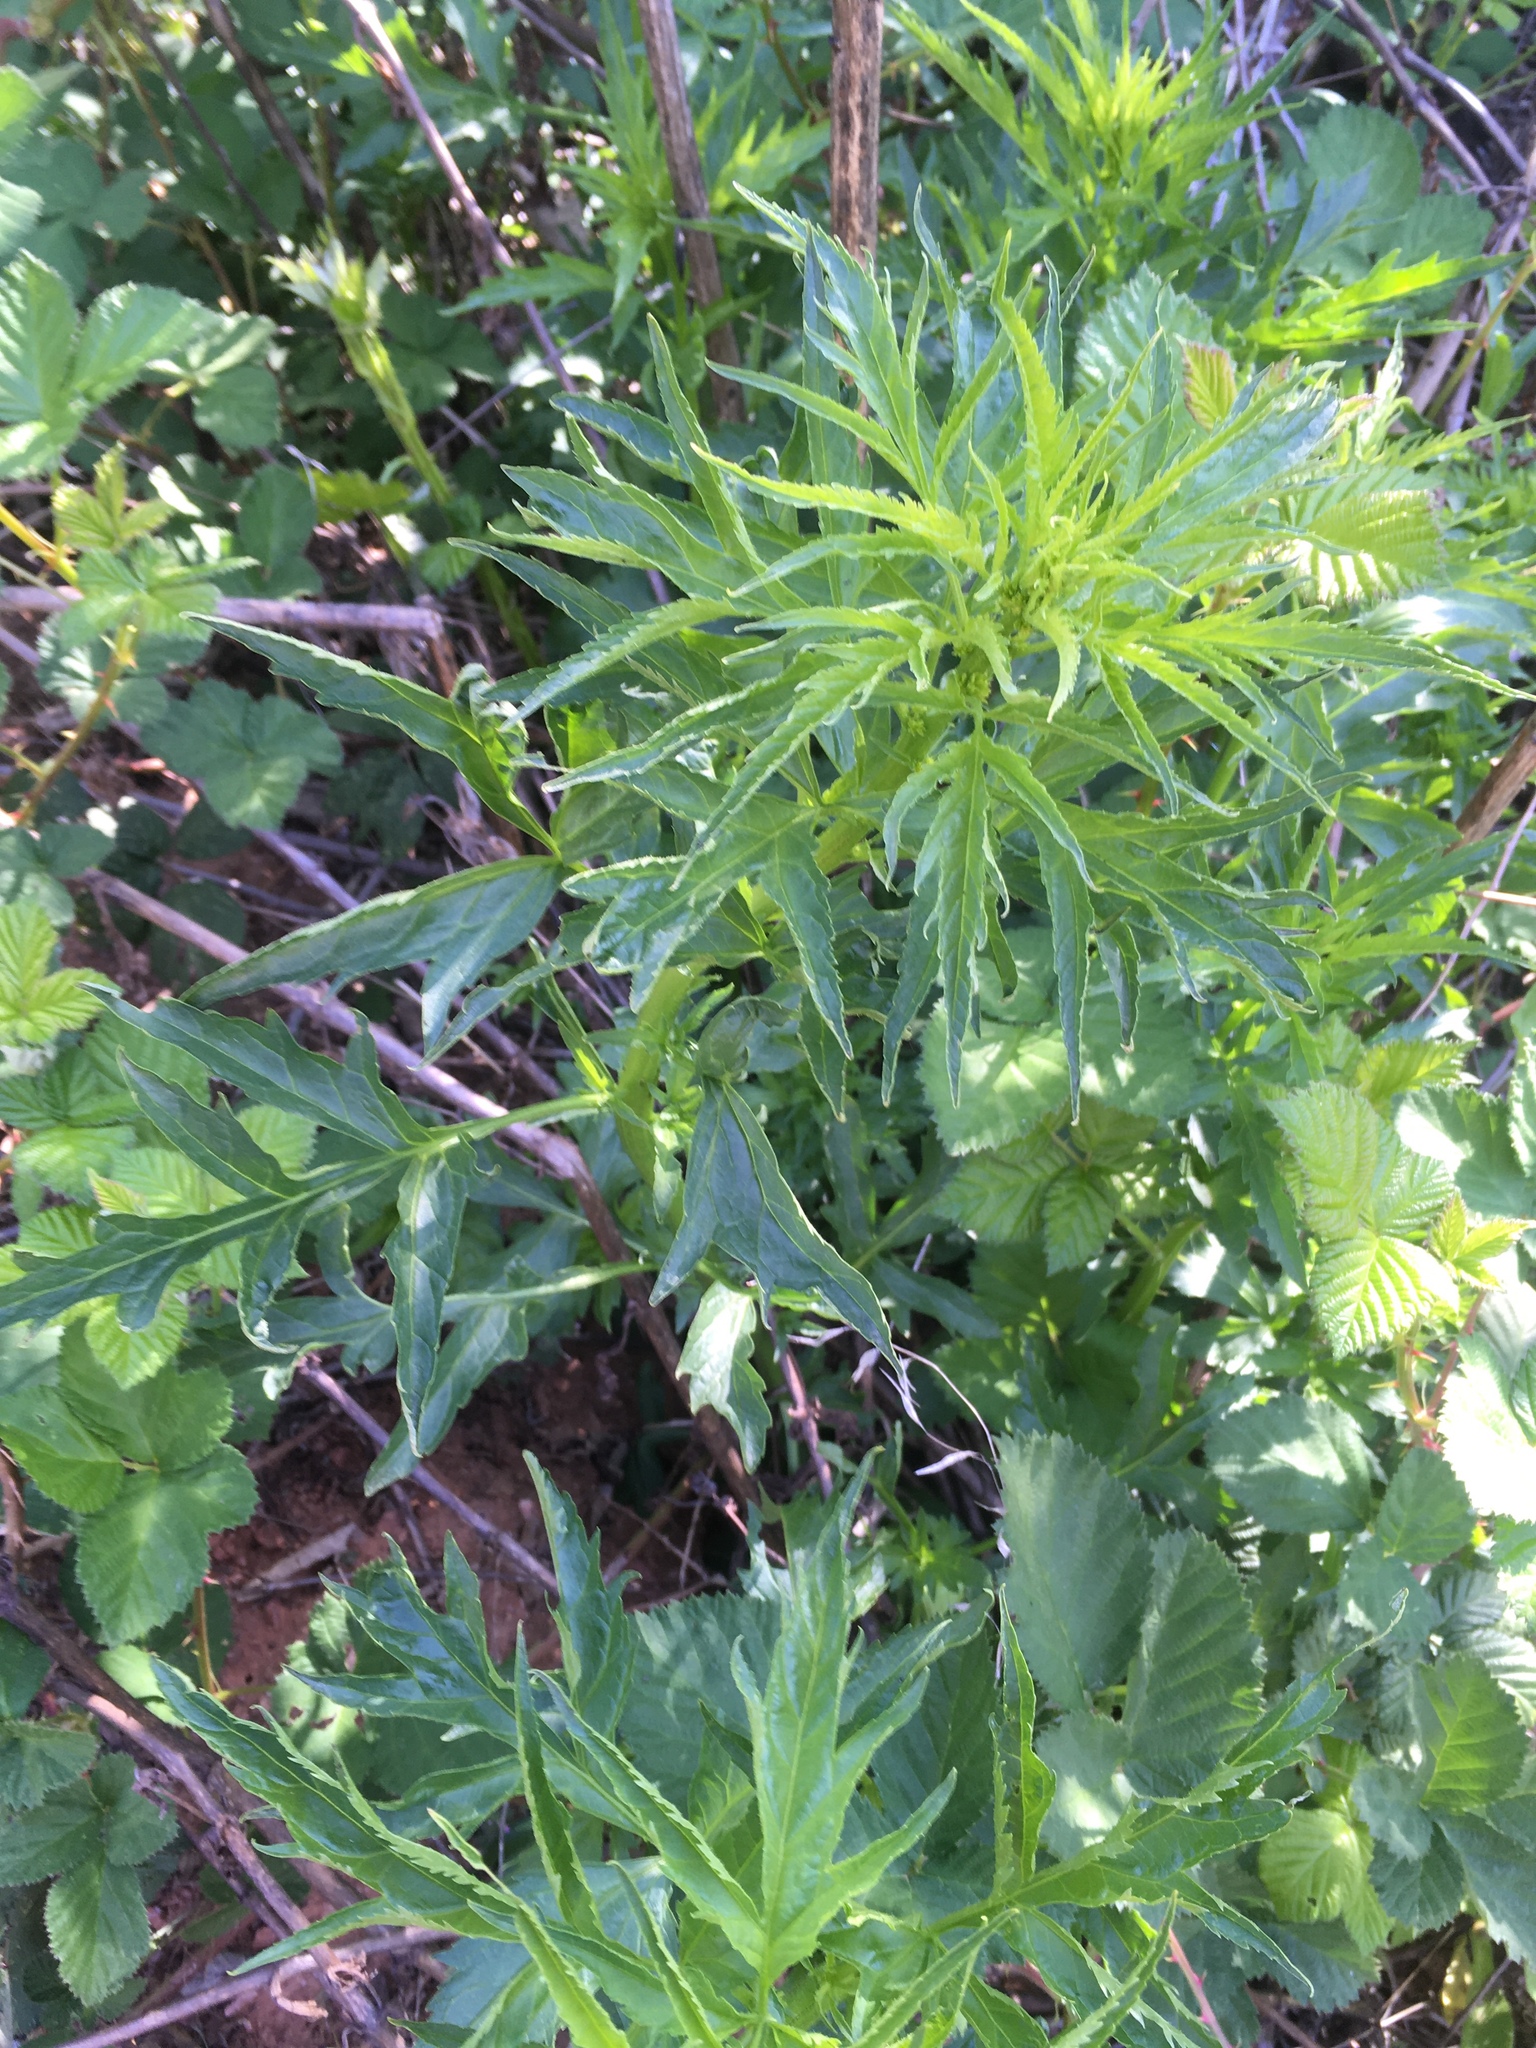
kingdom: Plantae
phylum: Tracheophyta
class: Magnoliopsida
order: Cucurbitales
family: Datiscaceae
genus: Datisca
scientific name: Datisca glomerata
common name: Durango-root
